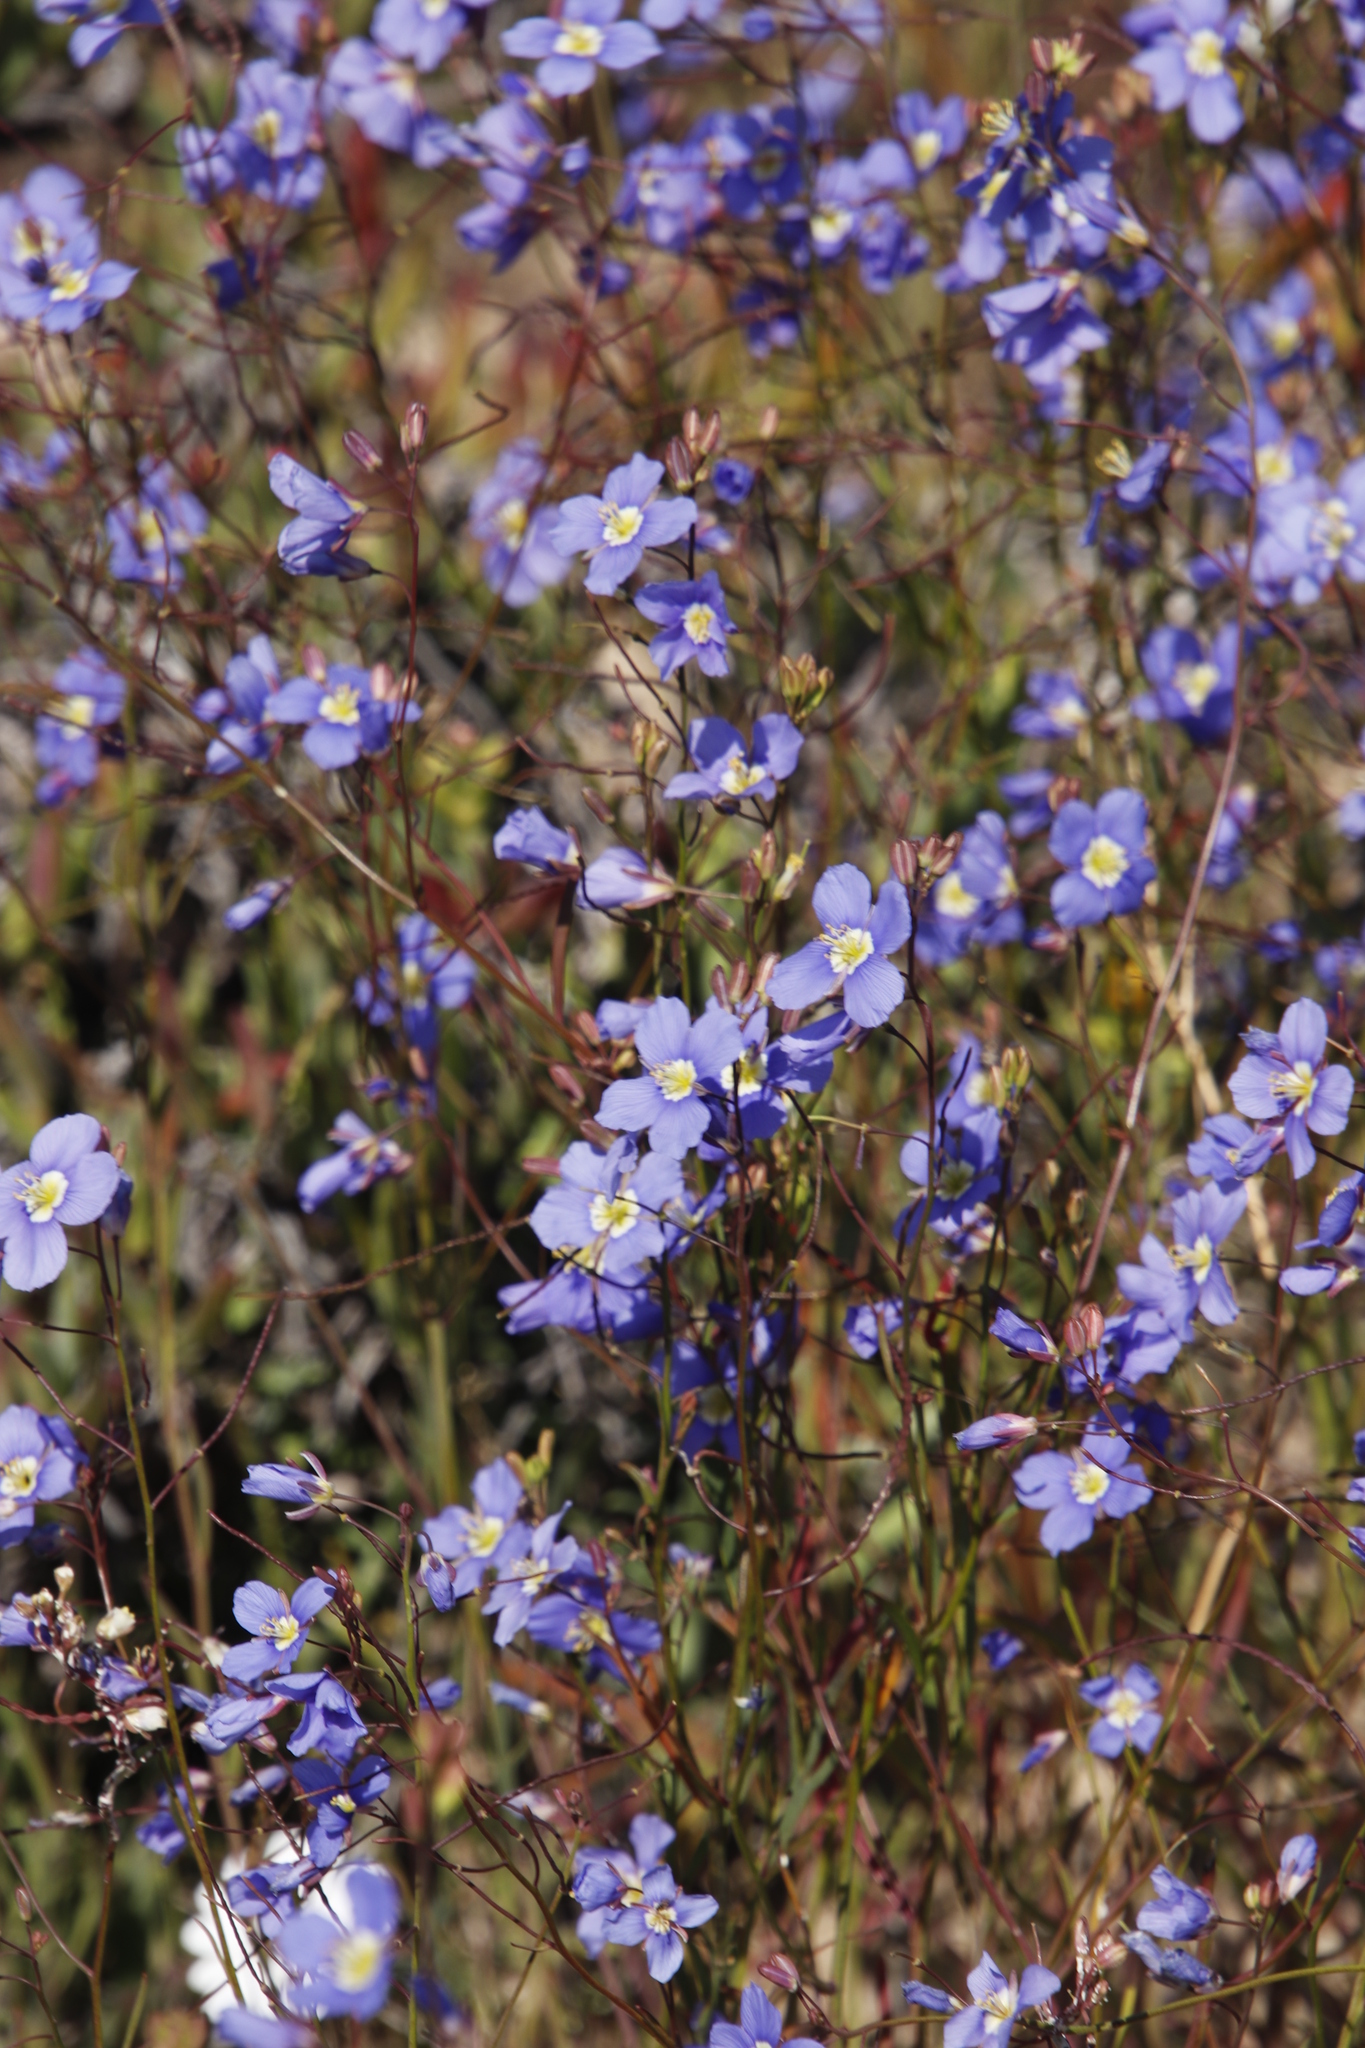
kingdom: Plantae
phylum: Tracheophyta
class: Magnoliopsida
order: Brassicales
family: Brassicaceae
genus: Heliophila
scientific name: Heliophila coronopifolia
